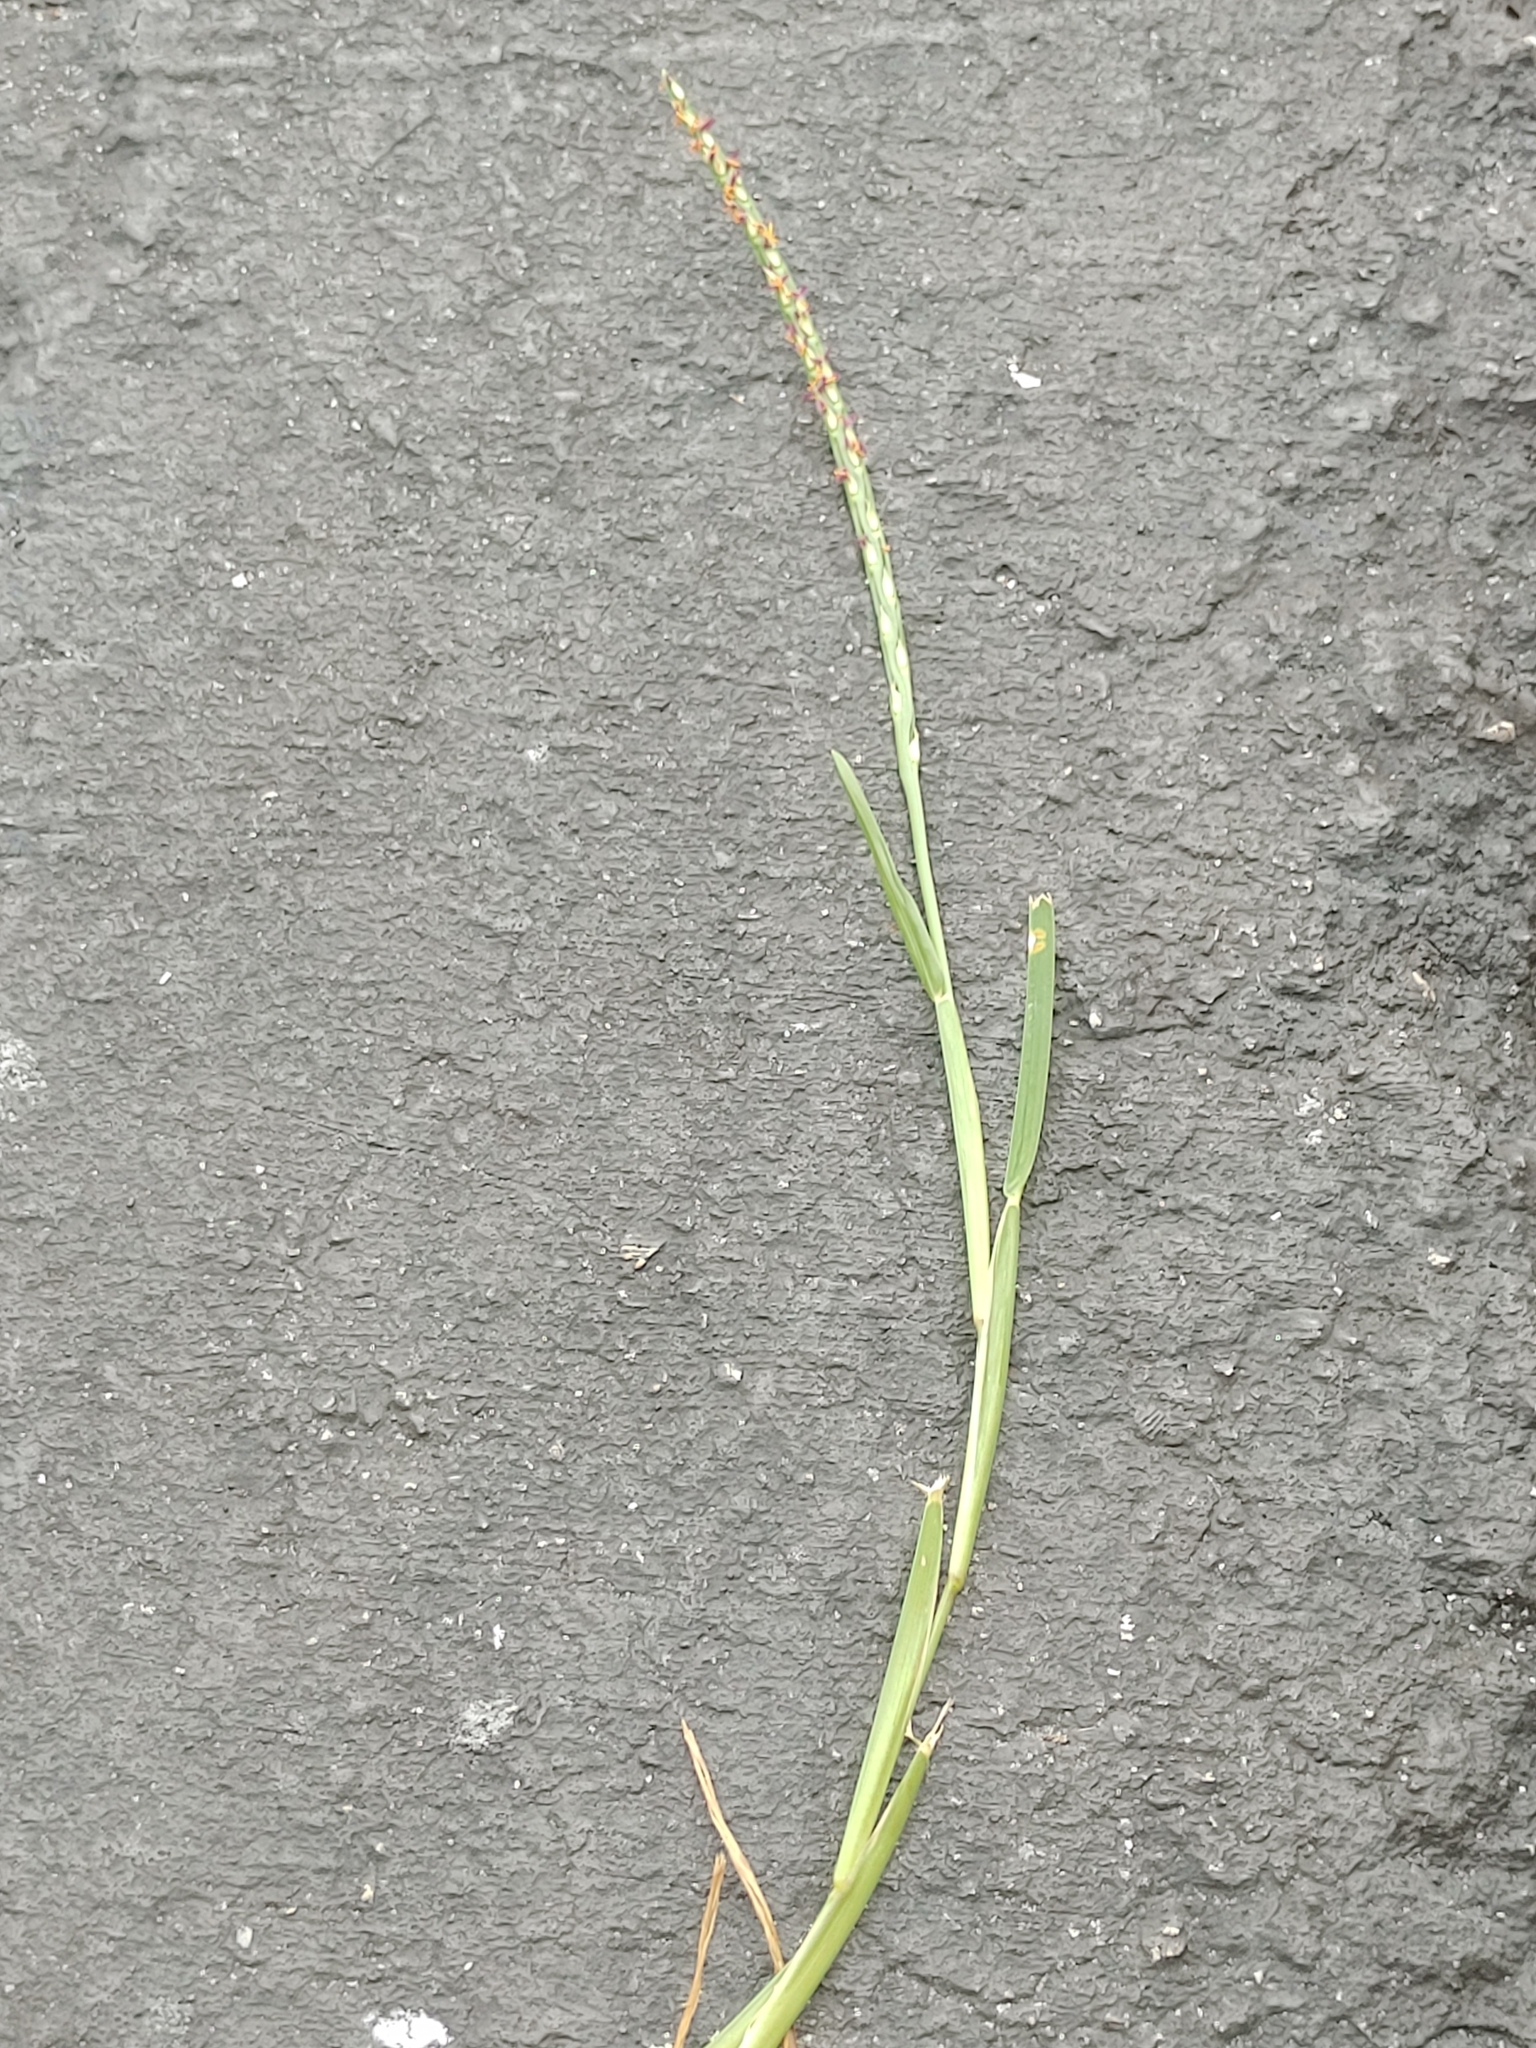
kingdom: Plantae
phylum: Tracheophyta
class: Liliopsida
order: Poales
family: Poaceae
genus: Stenotaphrum
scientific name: Stenotaphrum secundatum
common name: St. augustine grass
